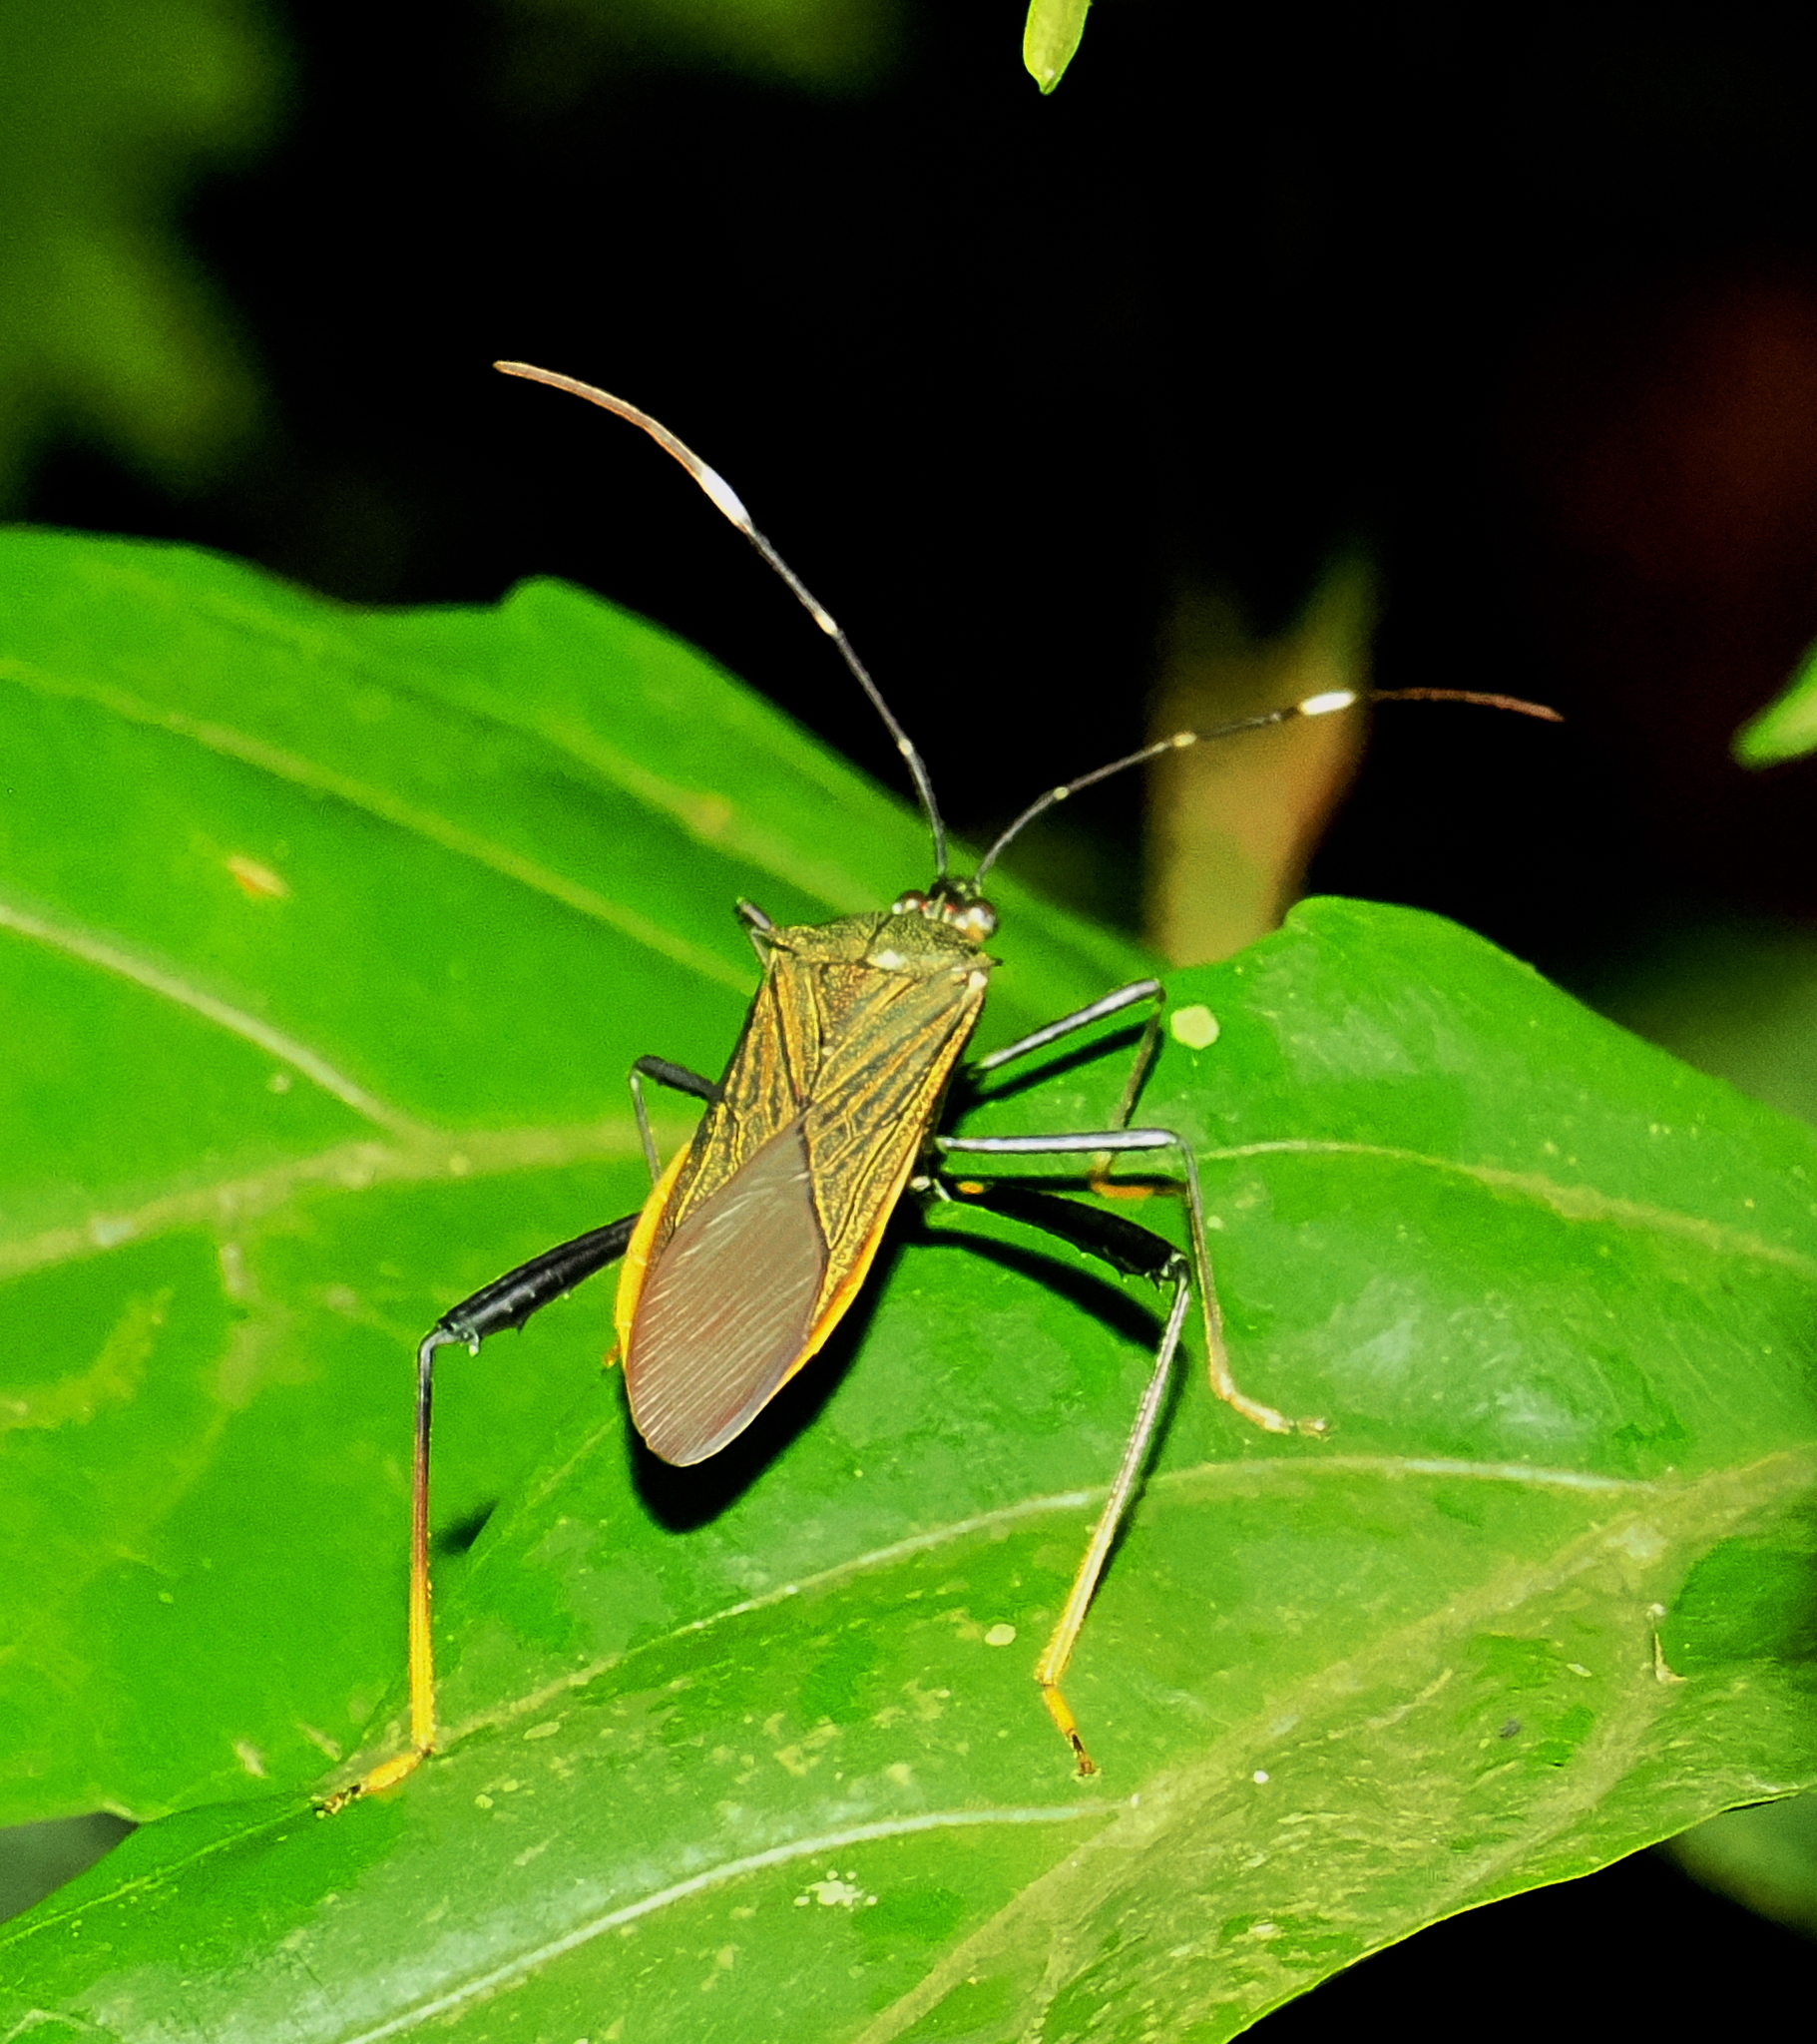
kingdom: Animalia
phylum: Arthropoda
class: Insecta
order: Hemiptera
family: Coreidae
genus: Nematopus
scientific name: Nematopus indus
